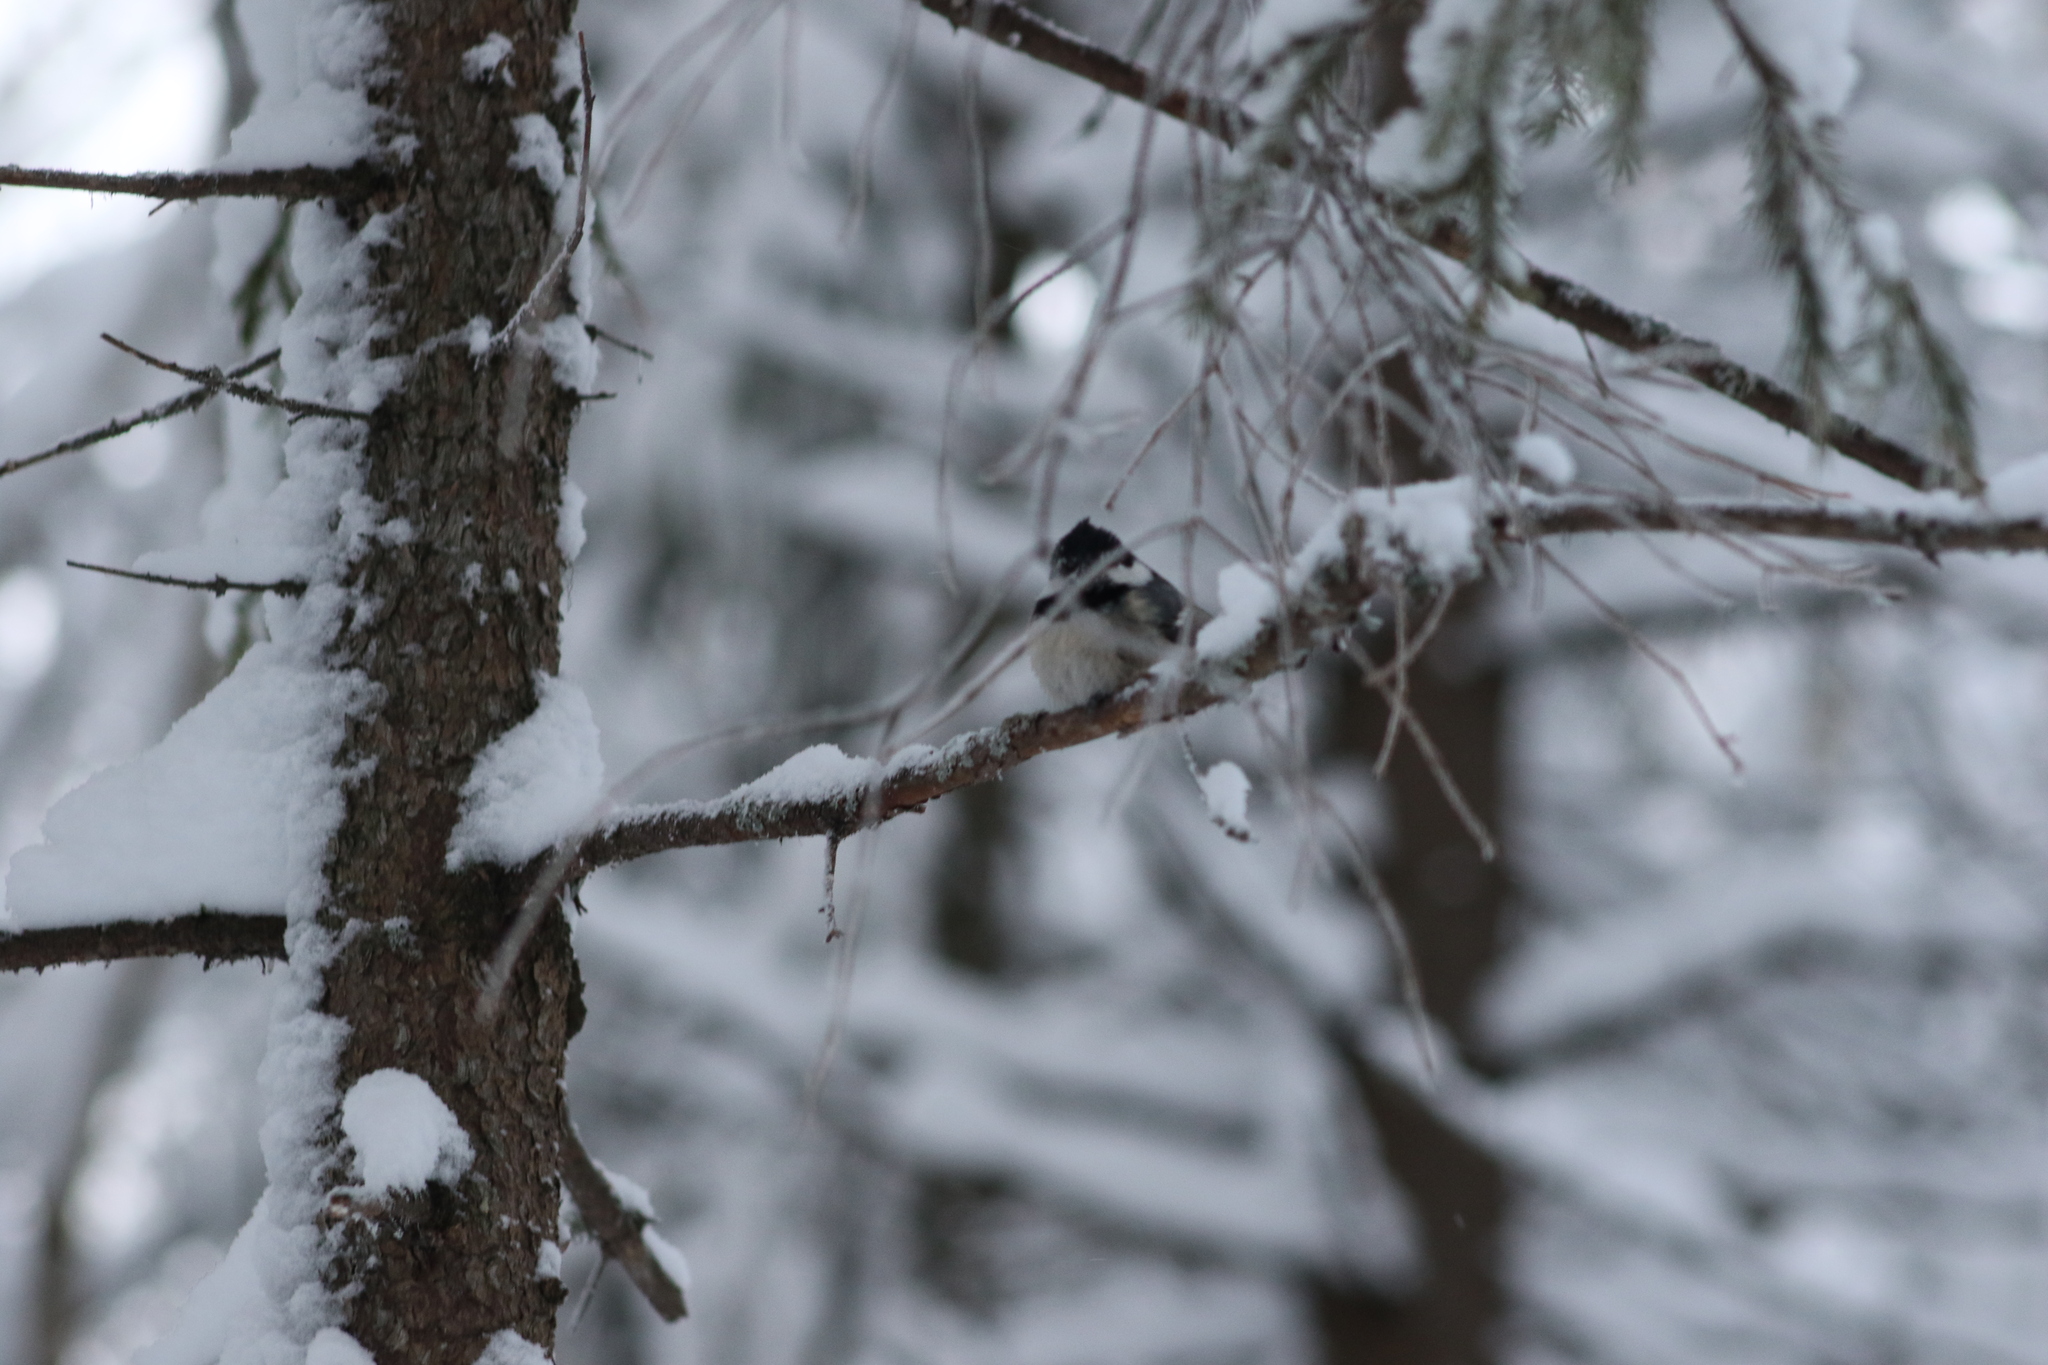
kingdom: Animalia
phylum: Chordata
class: Aves
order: Passeriformes
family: Paridae
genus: Periparus
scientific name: Periparus ater
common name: Coal tit
